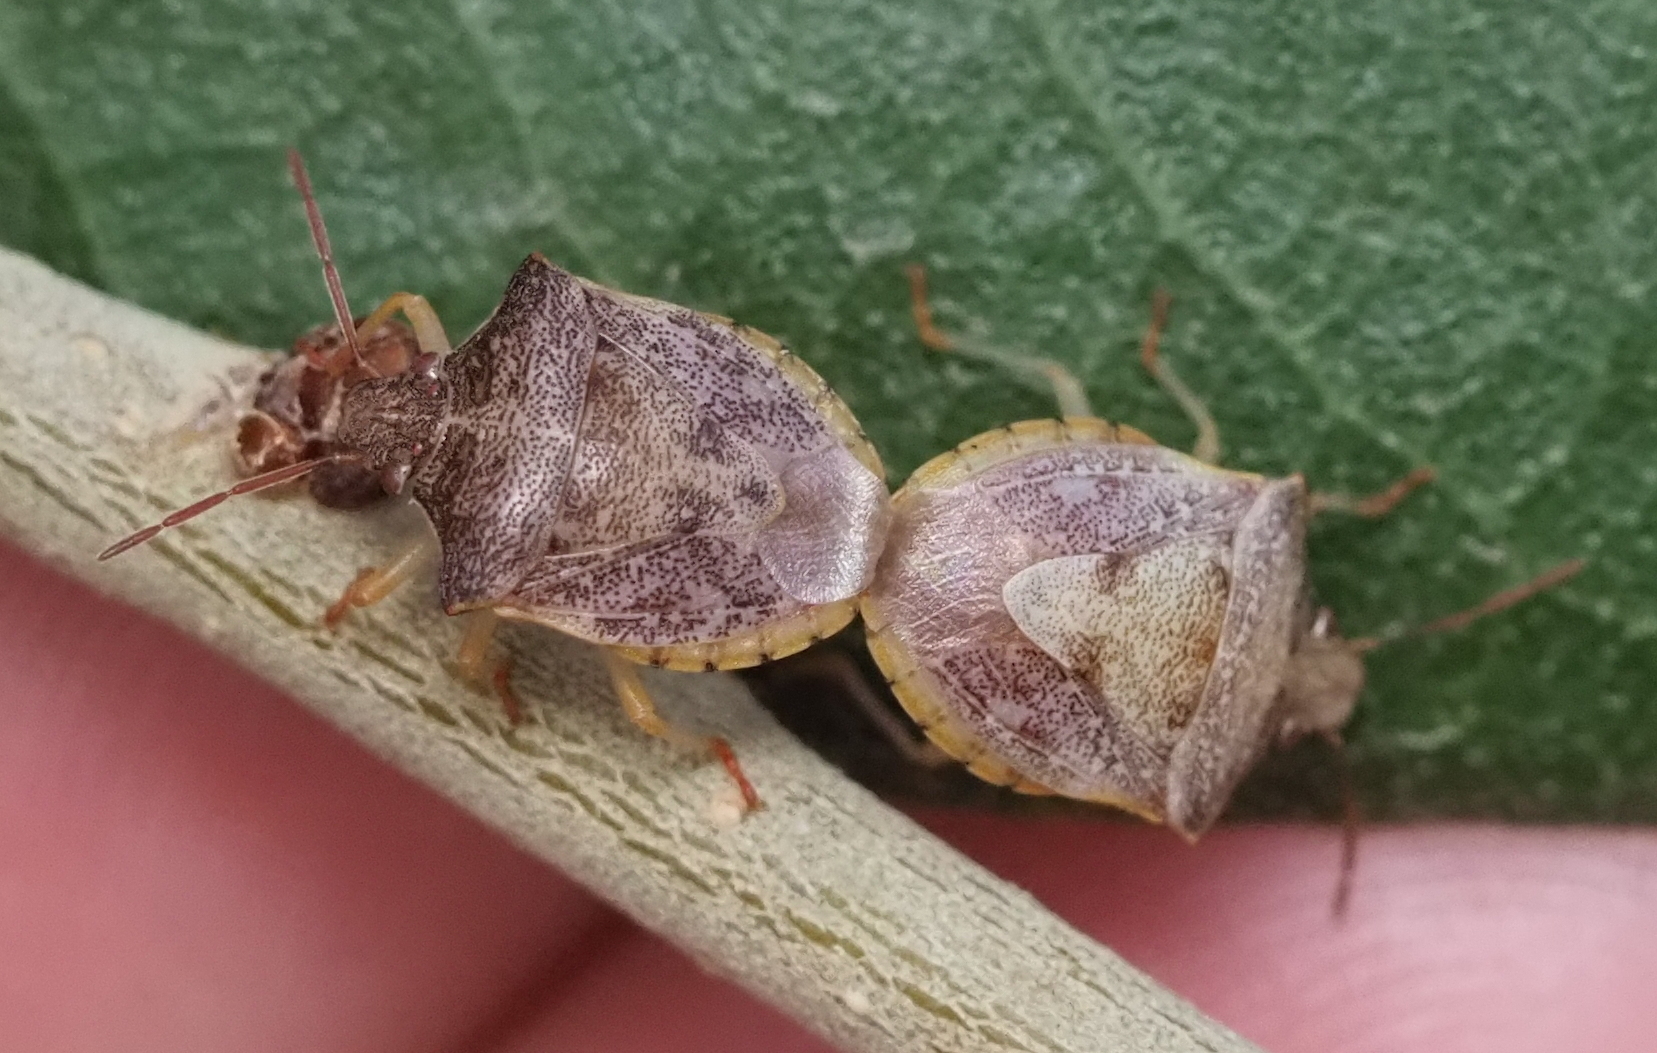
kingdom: Animalia
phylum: Arthropoda
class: Insecta
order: Hemiptera
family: Pentatomidae
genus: Dendrocoris
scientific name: Dendrocoris humeralis
